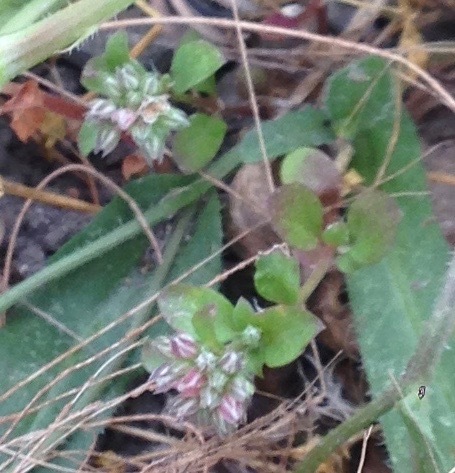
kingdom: Plantae
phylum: Tracheophyta
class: Magnoliopsida
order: Caryophyllales
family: Caryophyllaceae
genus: Polycarpon
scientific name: Polycarpon tetraphyllum
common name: Four-leaved all-seed
